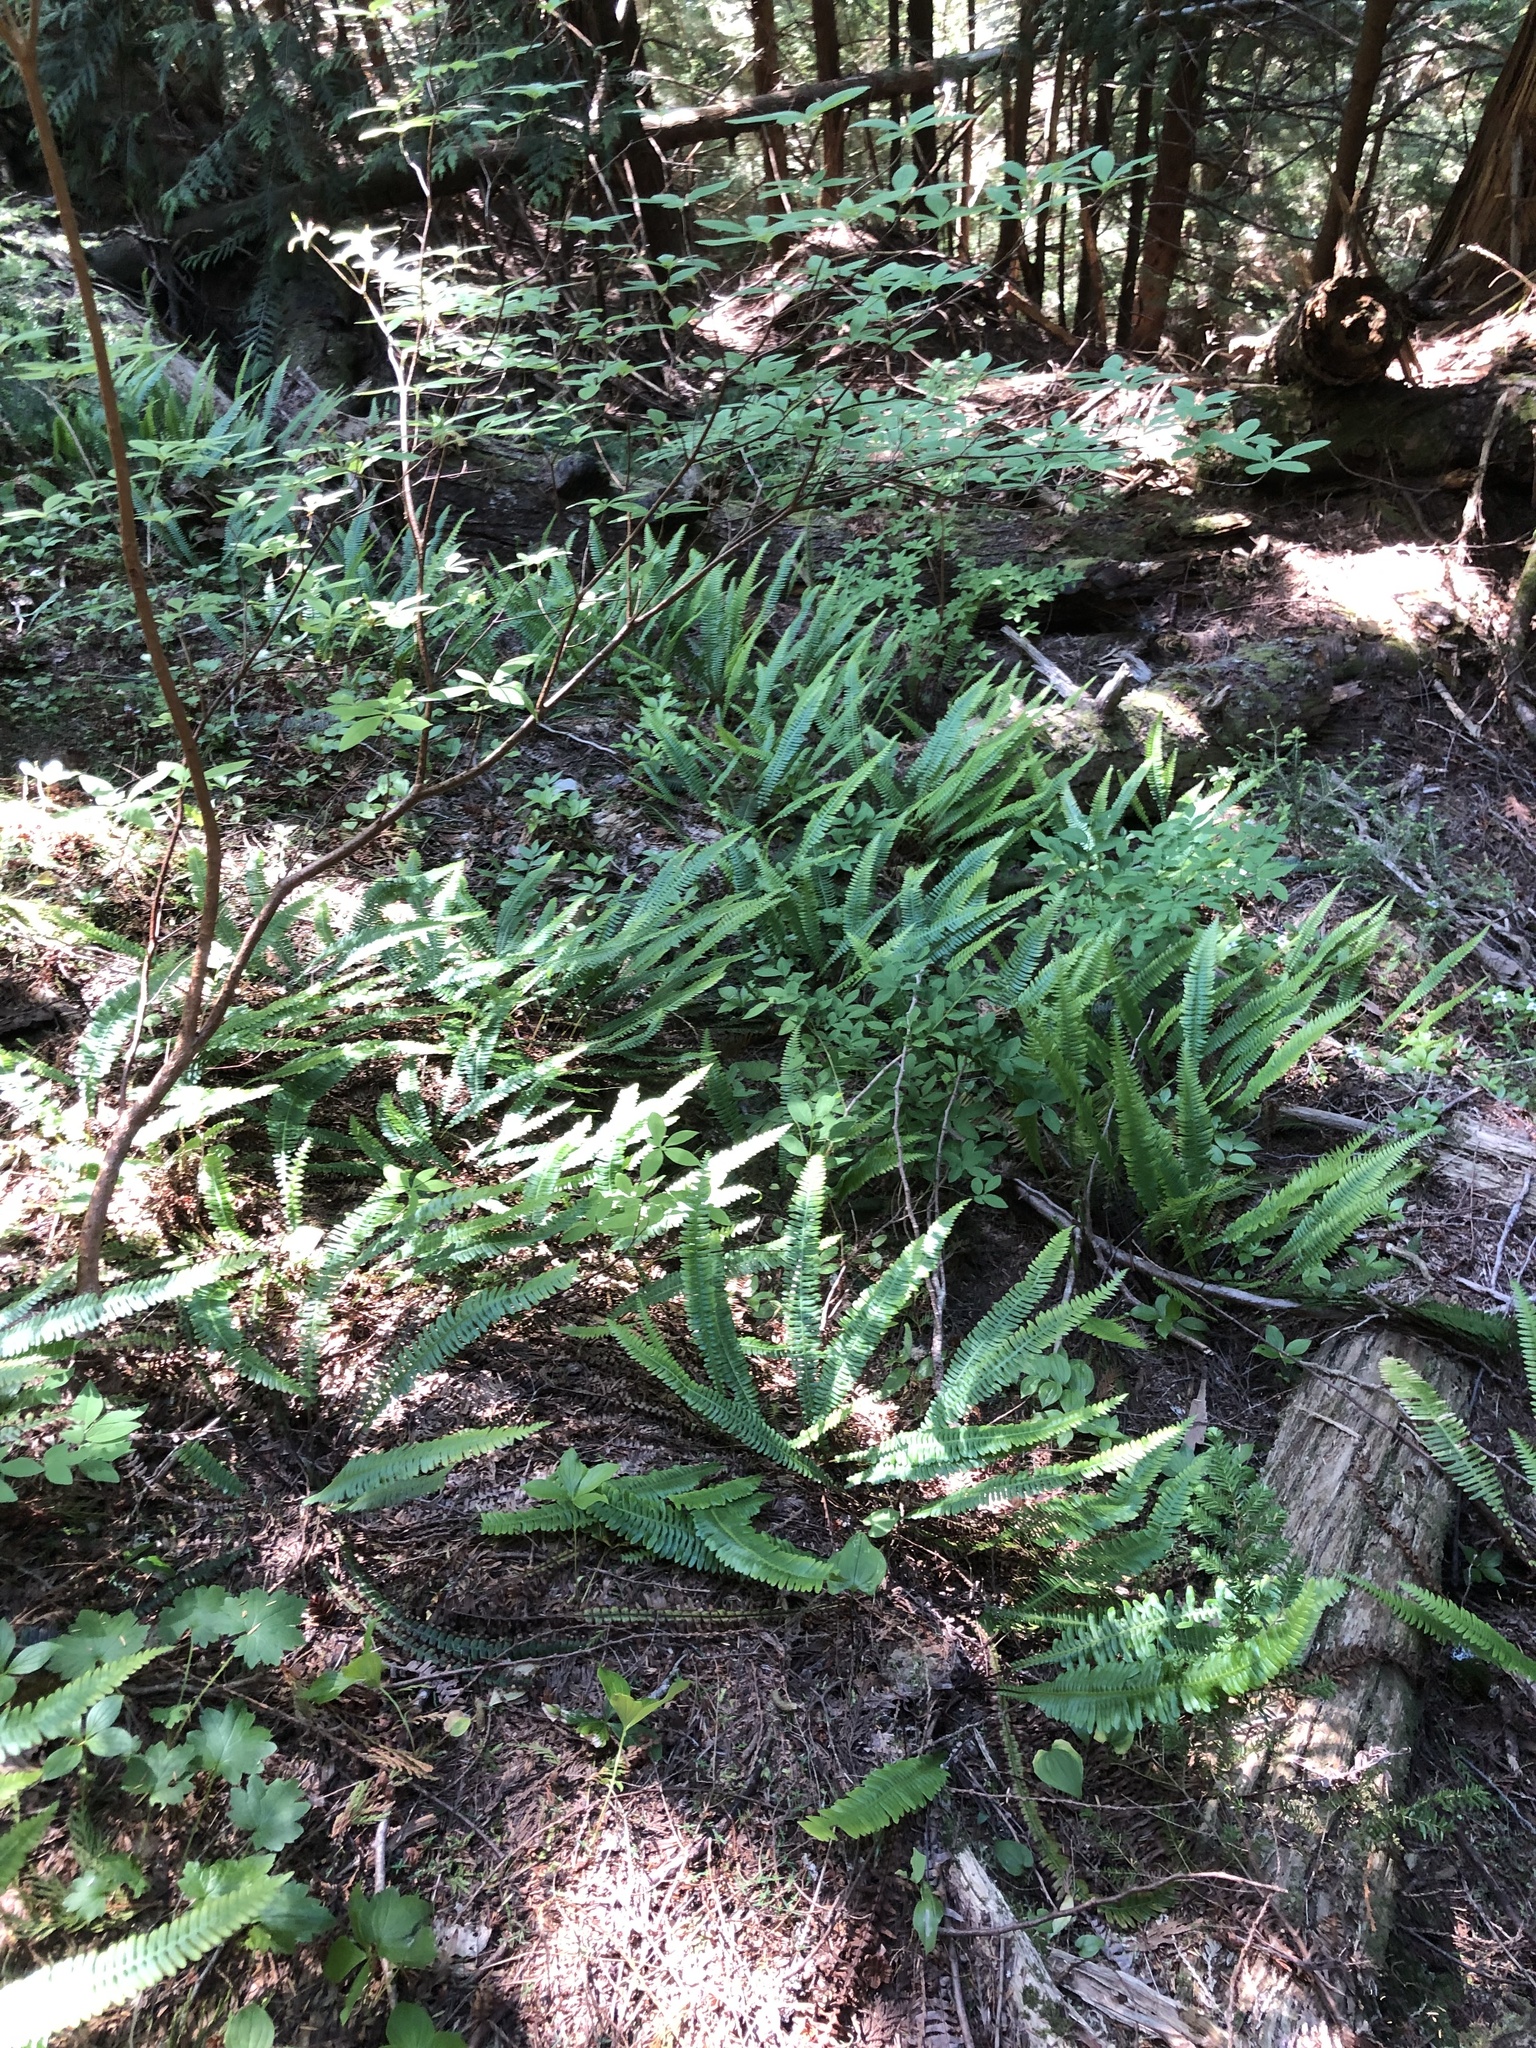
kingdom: Plantae
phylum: Tracheophyta
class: Polypodiopsida
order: Polypodiales
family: Blechnaceae
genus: Struthiopteris
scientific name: Struthiopteris spicant
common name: Deer fern
